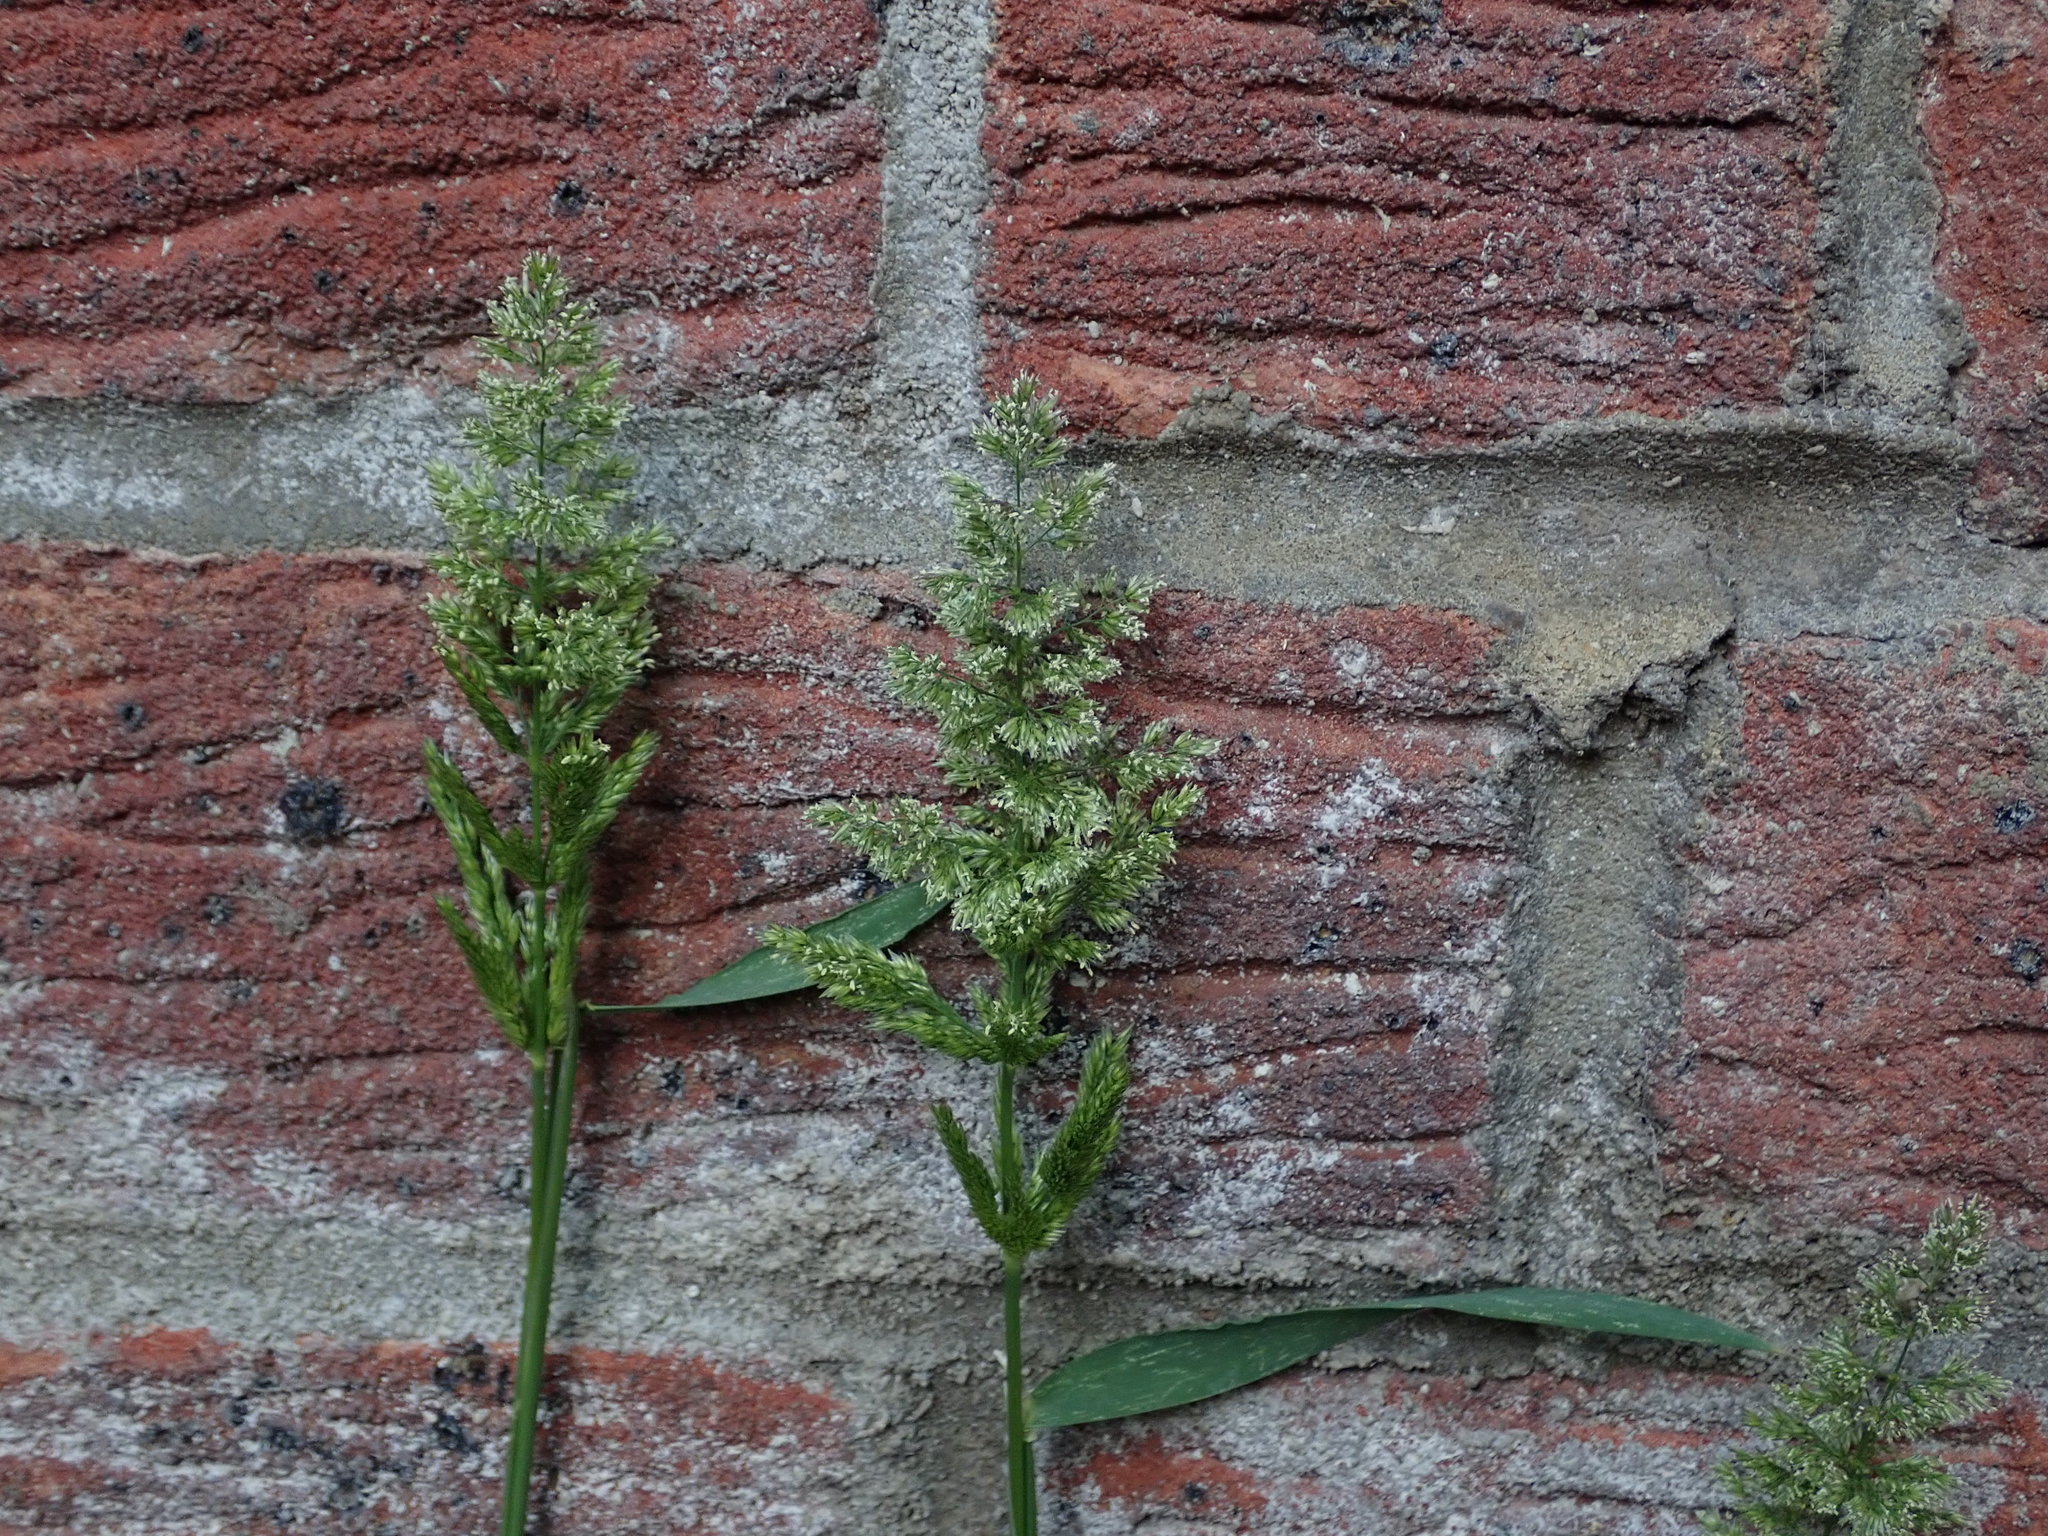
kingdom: Plantae
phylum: Tracheophyta
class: Liliopsida
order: Poales
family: Poaceae
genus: Polypogon
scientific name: Polypogon viridis
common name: Water bent
